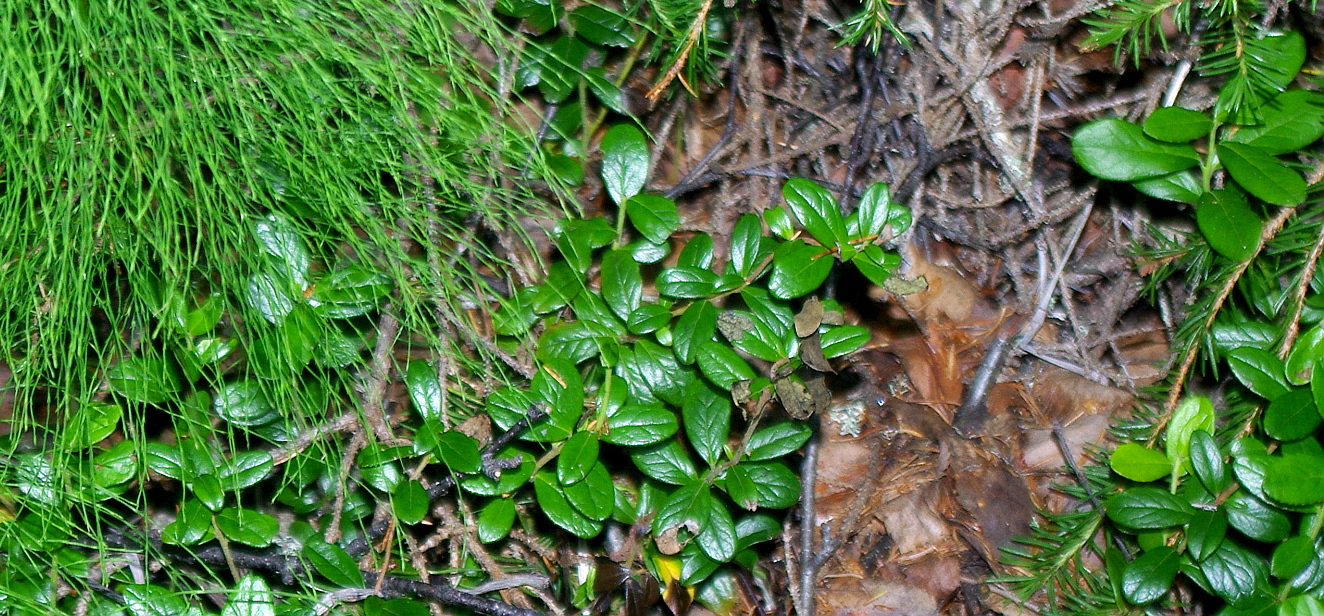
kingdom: Plantae
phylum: Tracheophyta
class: Magnoliopsida
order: Ericales
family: Ericaceae
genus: Vaccinium
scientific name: Vaccinium vitis-idaea
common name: Cowberry
